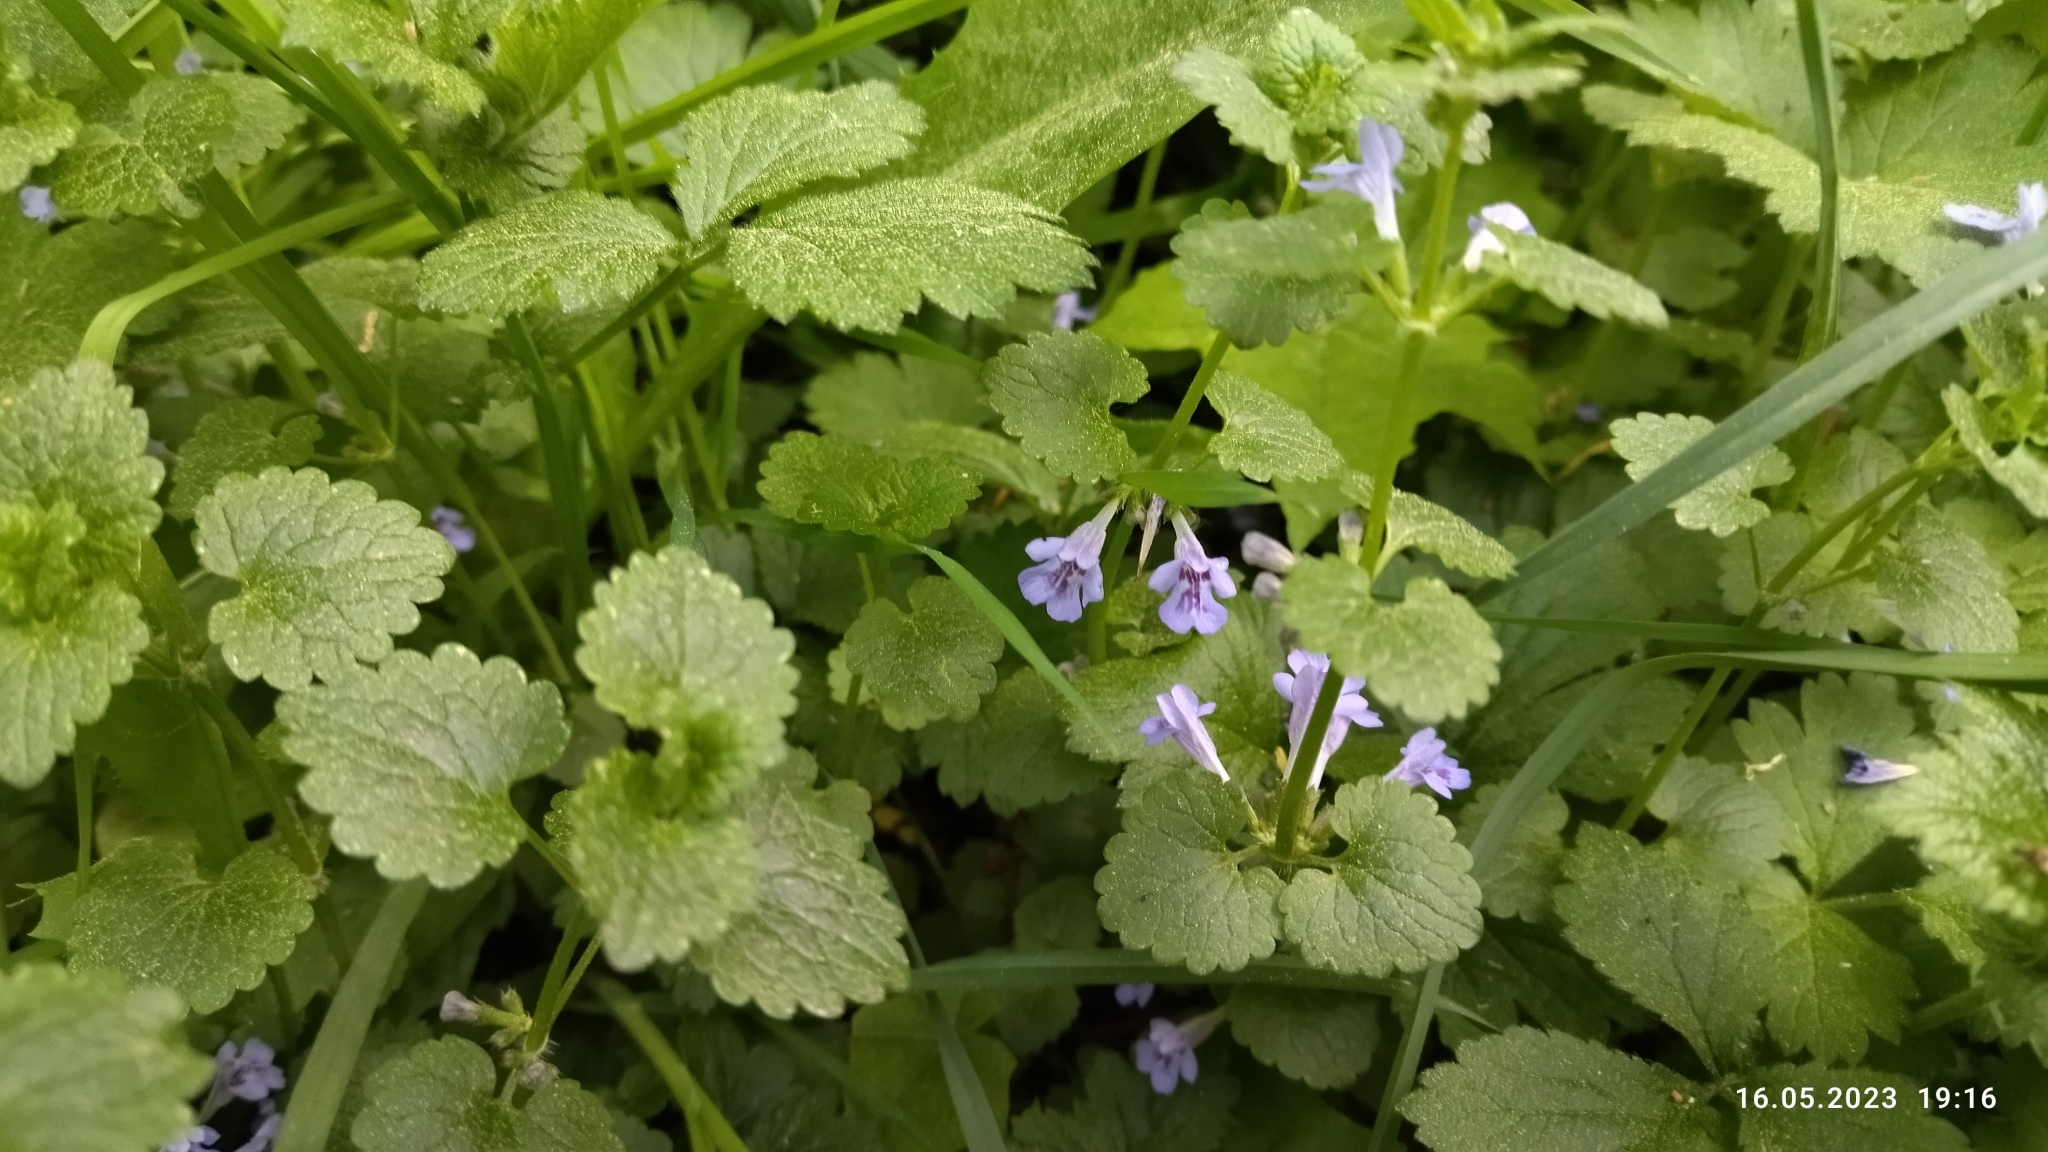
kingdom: Plantae
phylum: Tracheophyta
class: Magnoliopsida
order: Lamiales
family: Lamiaceae
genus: Glechoma
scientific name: Glechoma hederacea
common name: Ground ivy
